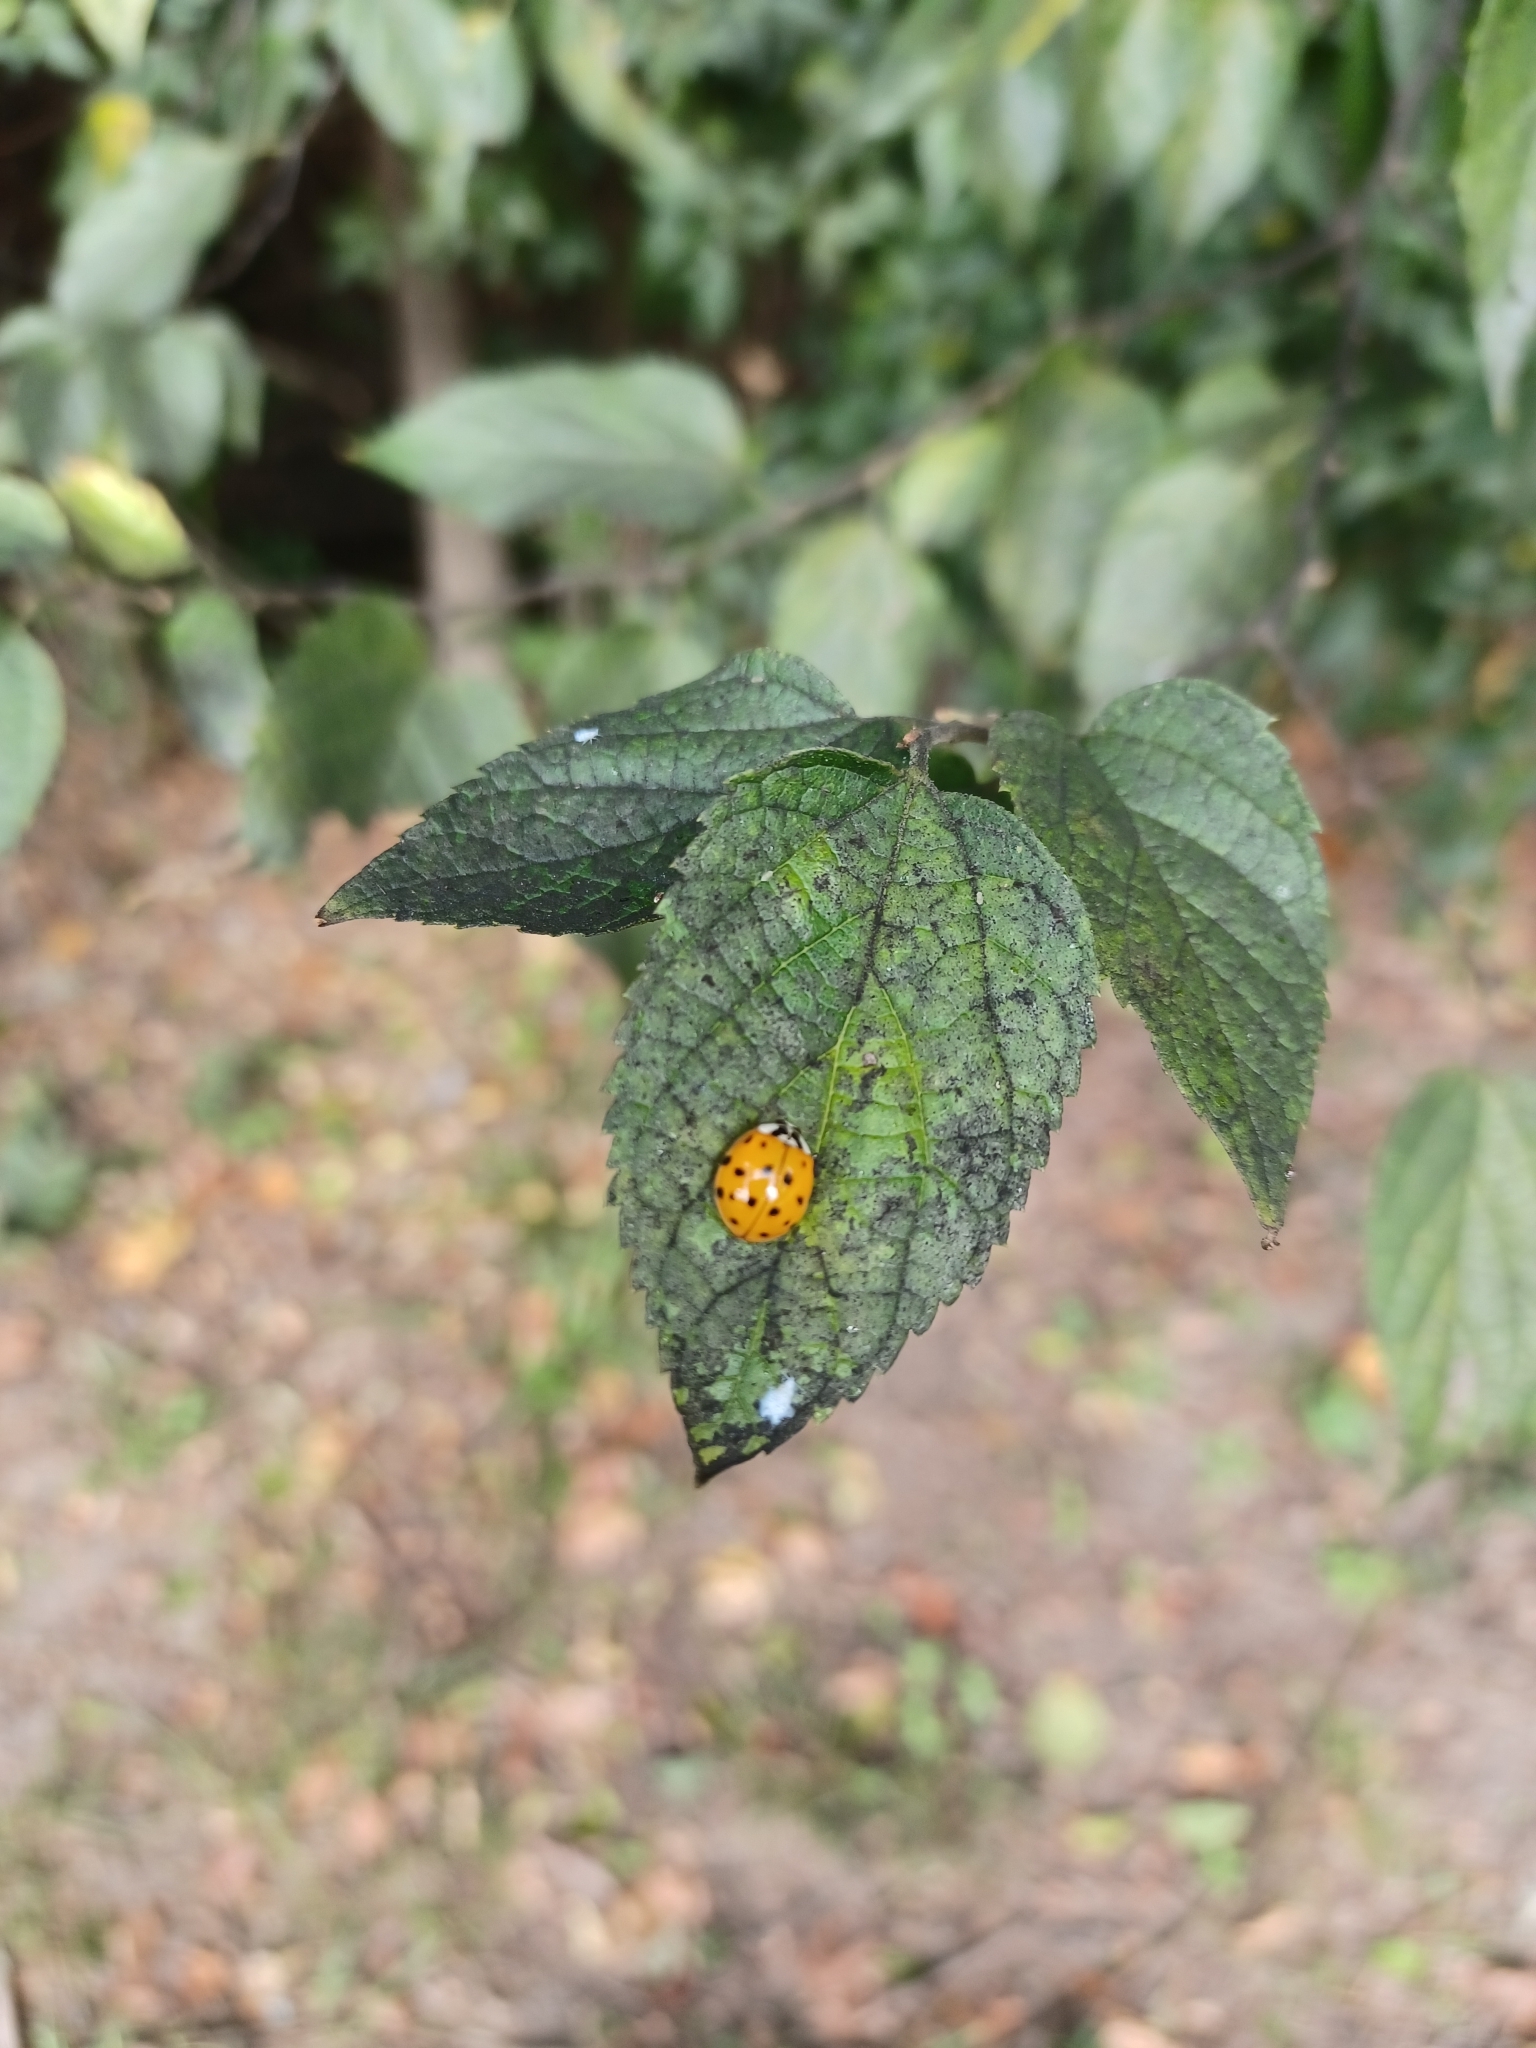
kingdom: Animalia
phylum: Arthropoda
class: Insecta
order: Coleoptera
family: Coccinellidae
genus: Harmonia
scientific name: Harmonia axyridis
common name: Harlequin ladybird
